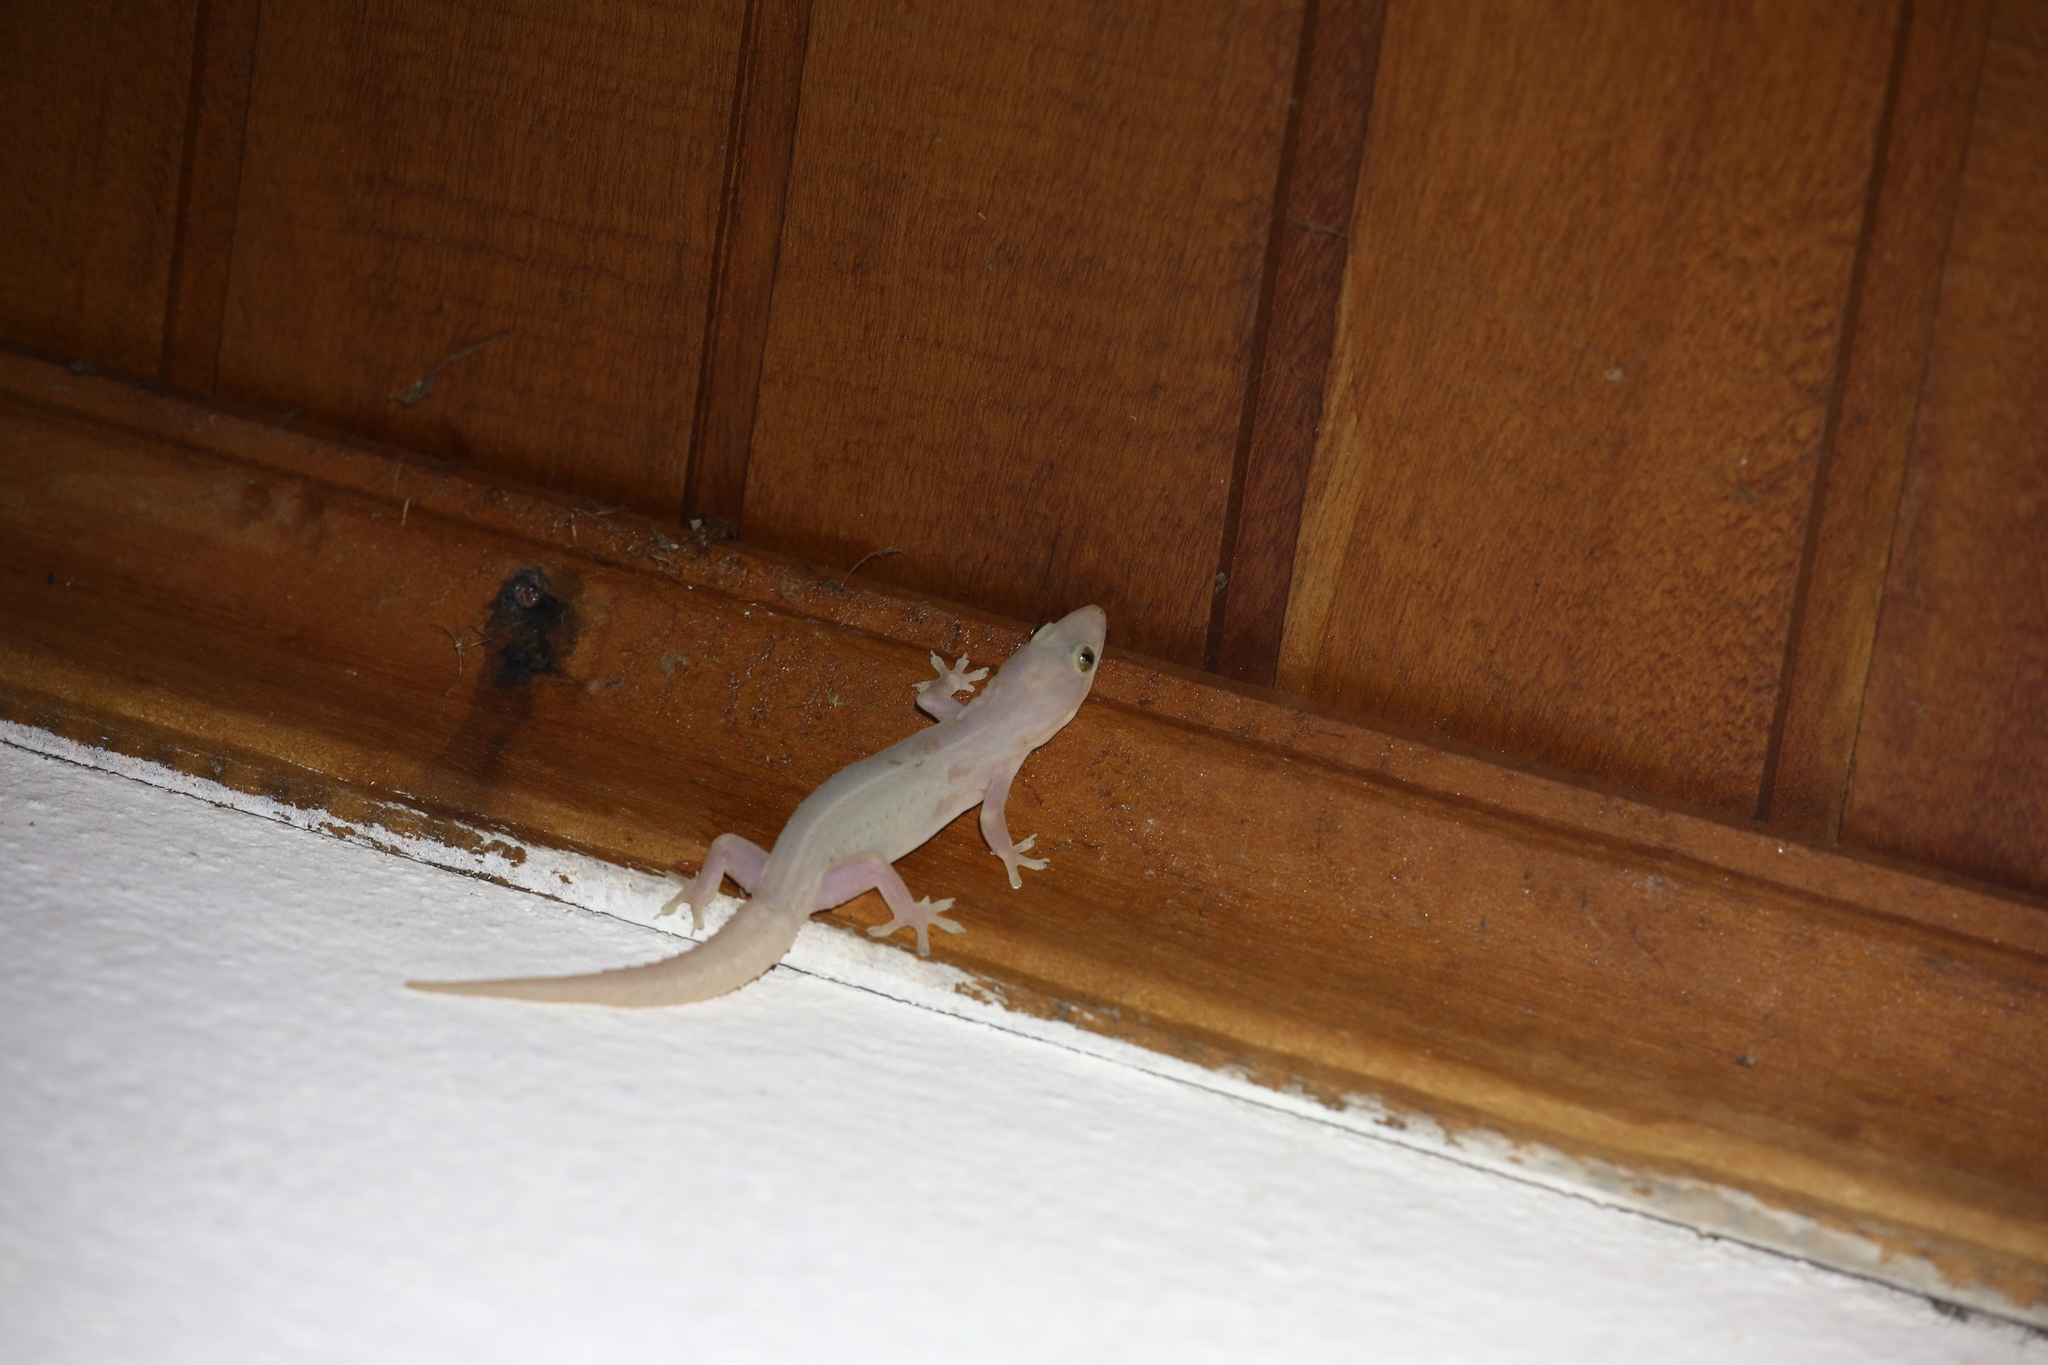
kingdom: Animalia
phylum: Chordata
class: Squamata
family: Gekkonidae
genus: Hemidactylus
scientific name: Hemidactylus frenatus
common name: Common house gecko
